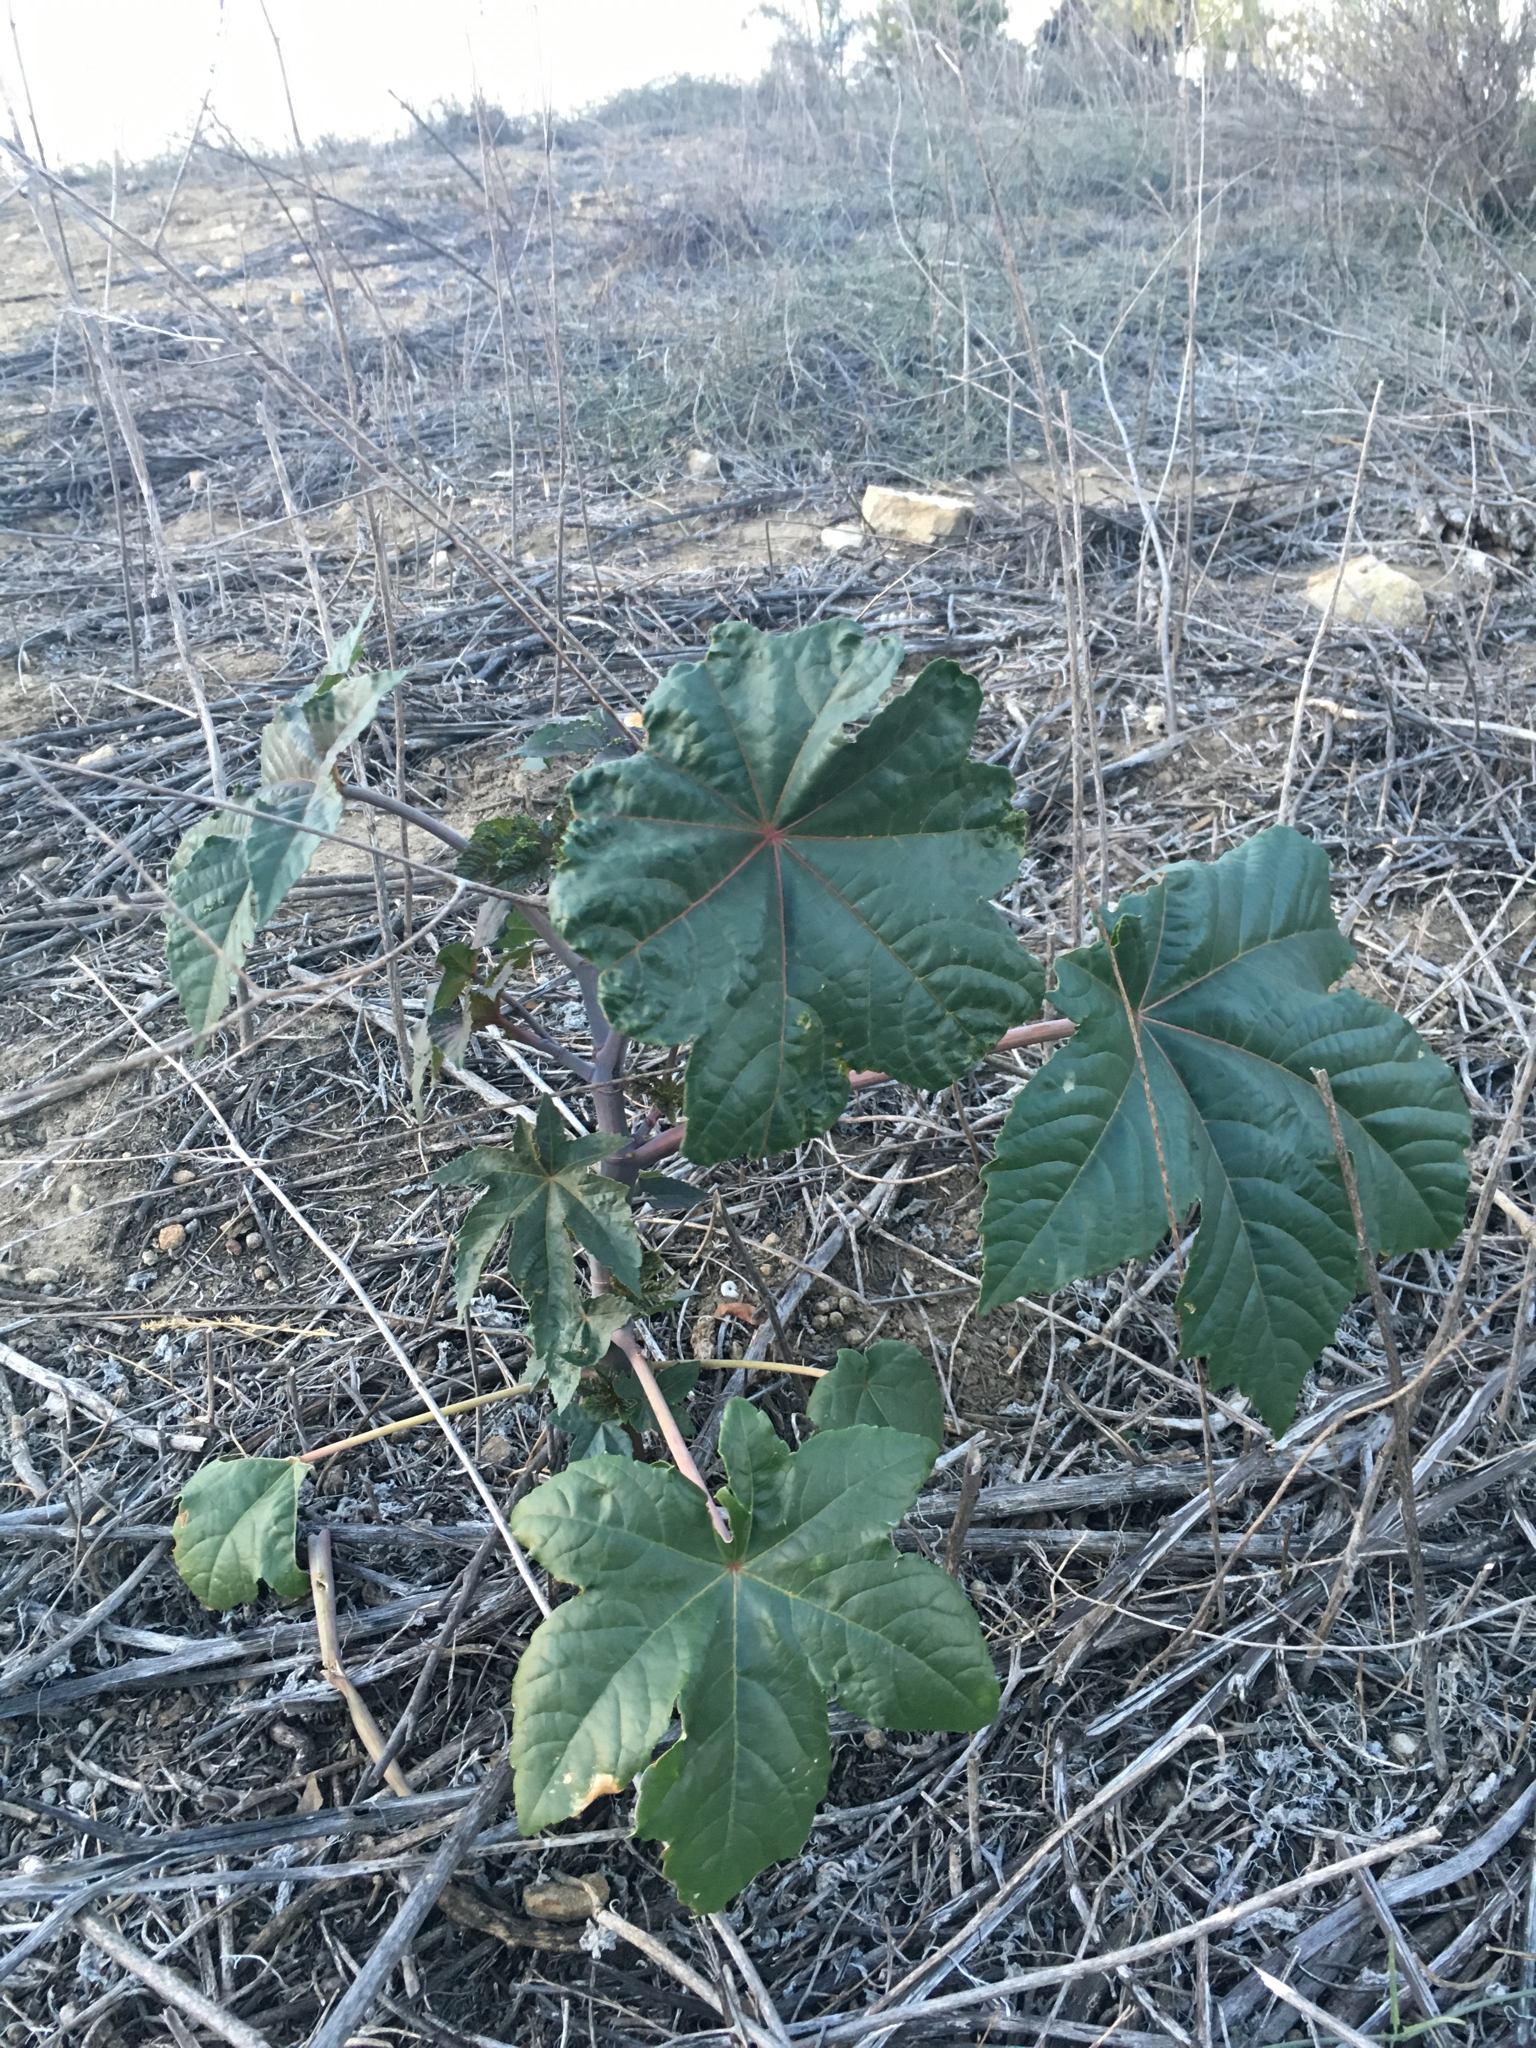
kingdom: Plantae
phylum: Tracheophyta
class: Magnoliopsida
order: Malpighiales
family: Euphorbiaceae
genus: Ricinus
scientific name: Ricinus communis
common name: Castor-oil-plant
